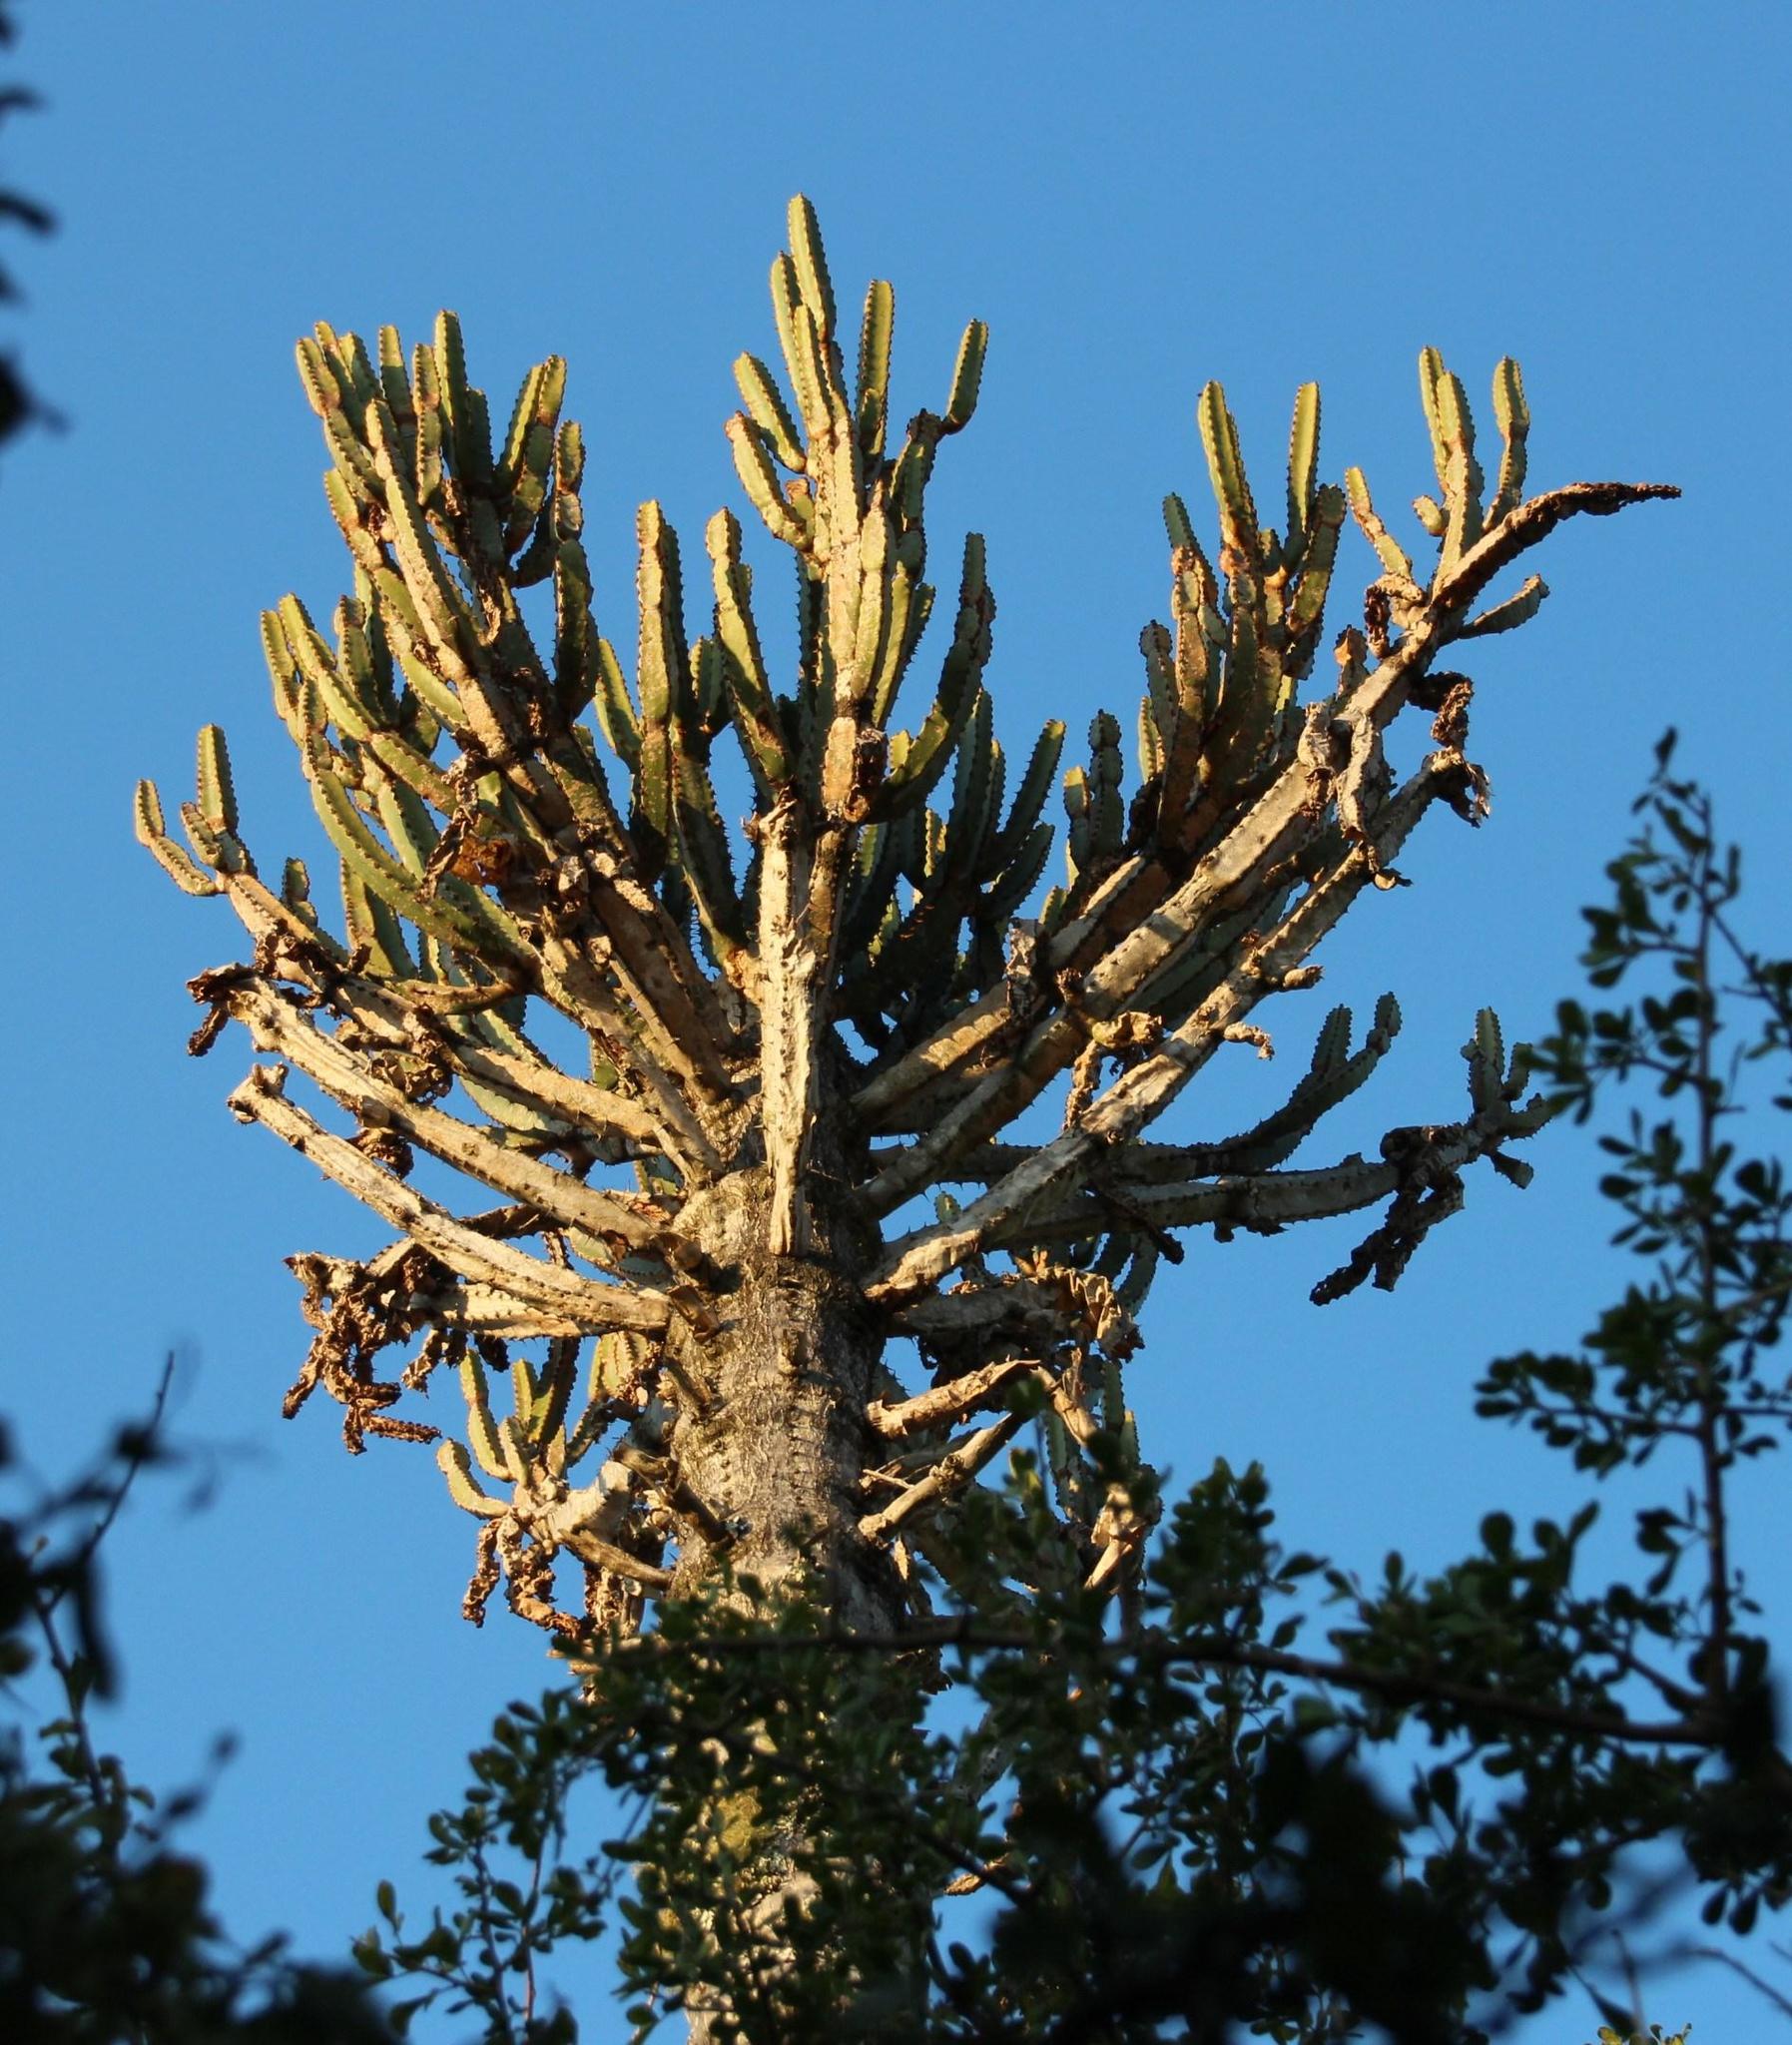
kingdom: Plantae
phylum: Tracheophyta
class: Magnoliopsida
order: Malpighiales
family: Euphorbiaceae
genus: Euphorbia
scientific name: Euphorbia tetragona
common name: Honey euphorbia
